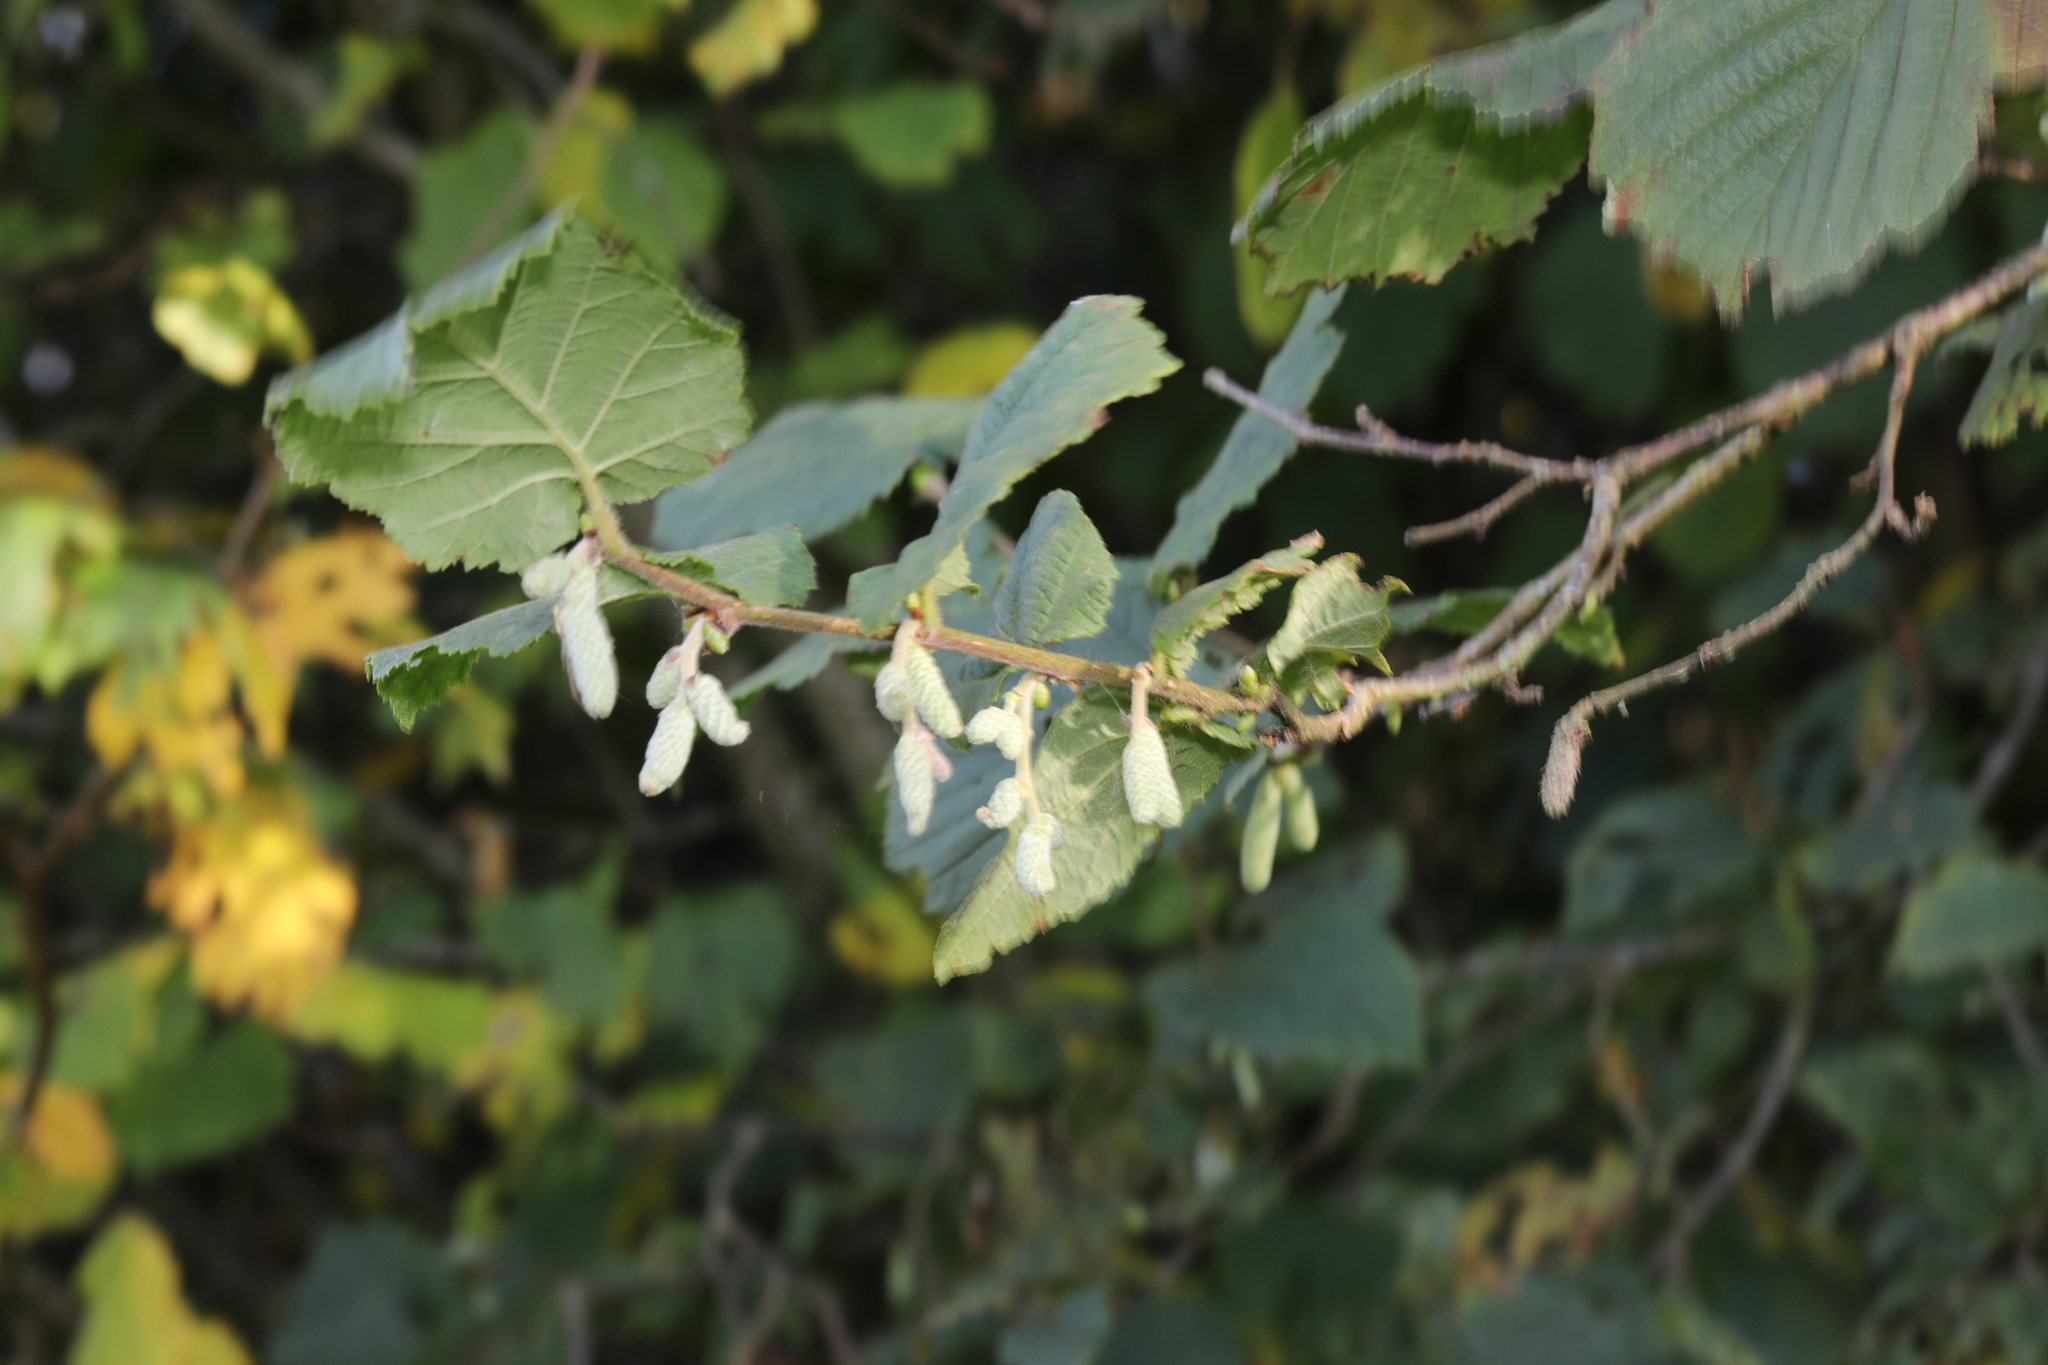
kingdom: Plantae
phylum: Tracheophyta
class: Magnoliopsida
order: Fagales
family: Betulaceae
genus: Corylus
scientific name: Corylus avellana
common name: European hazel
